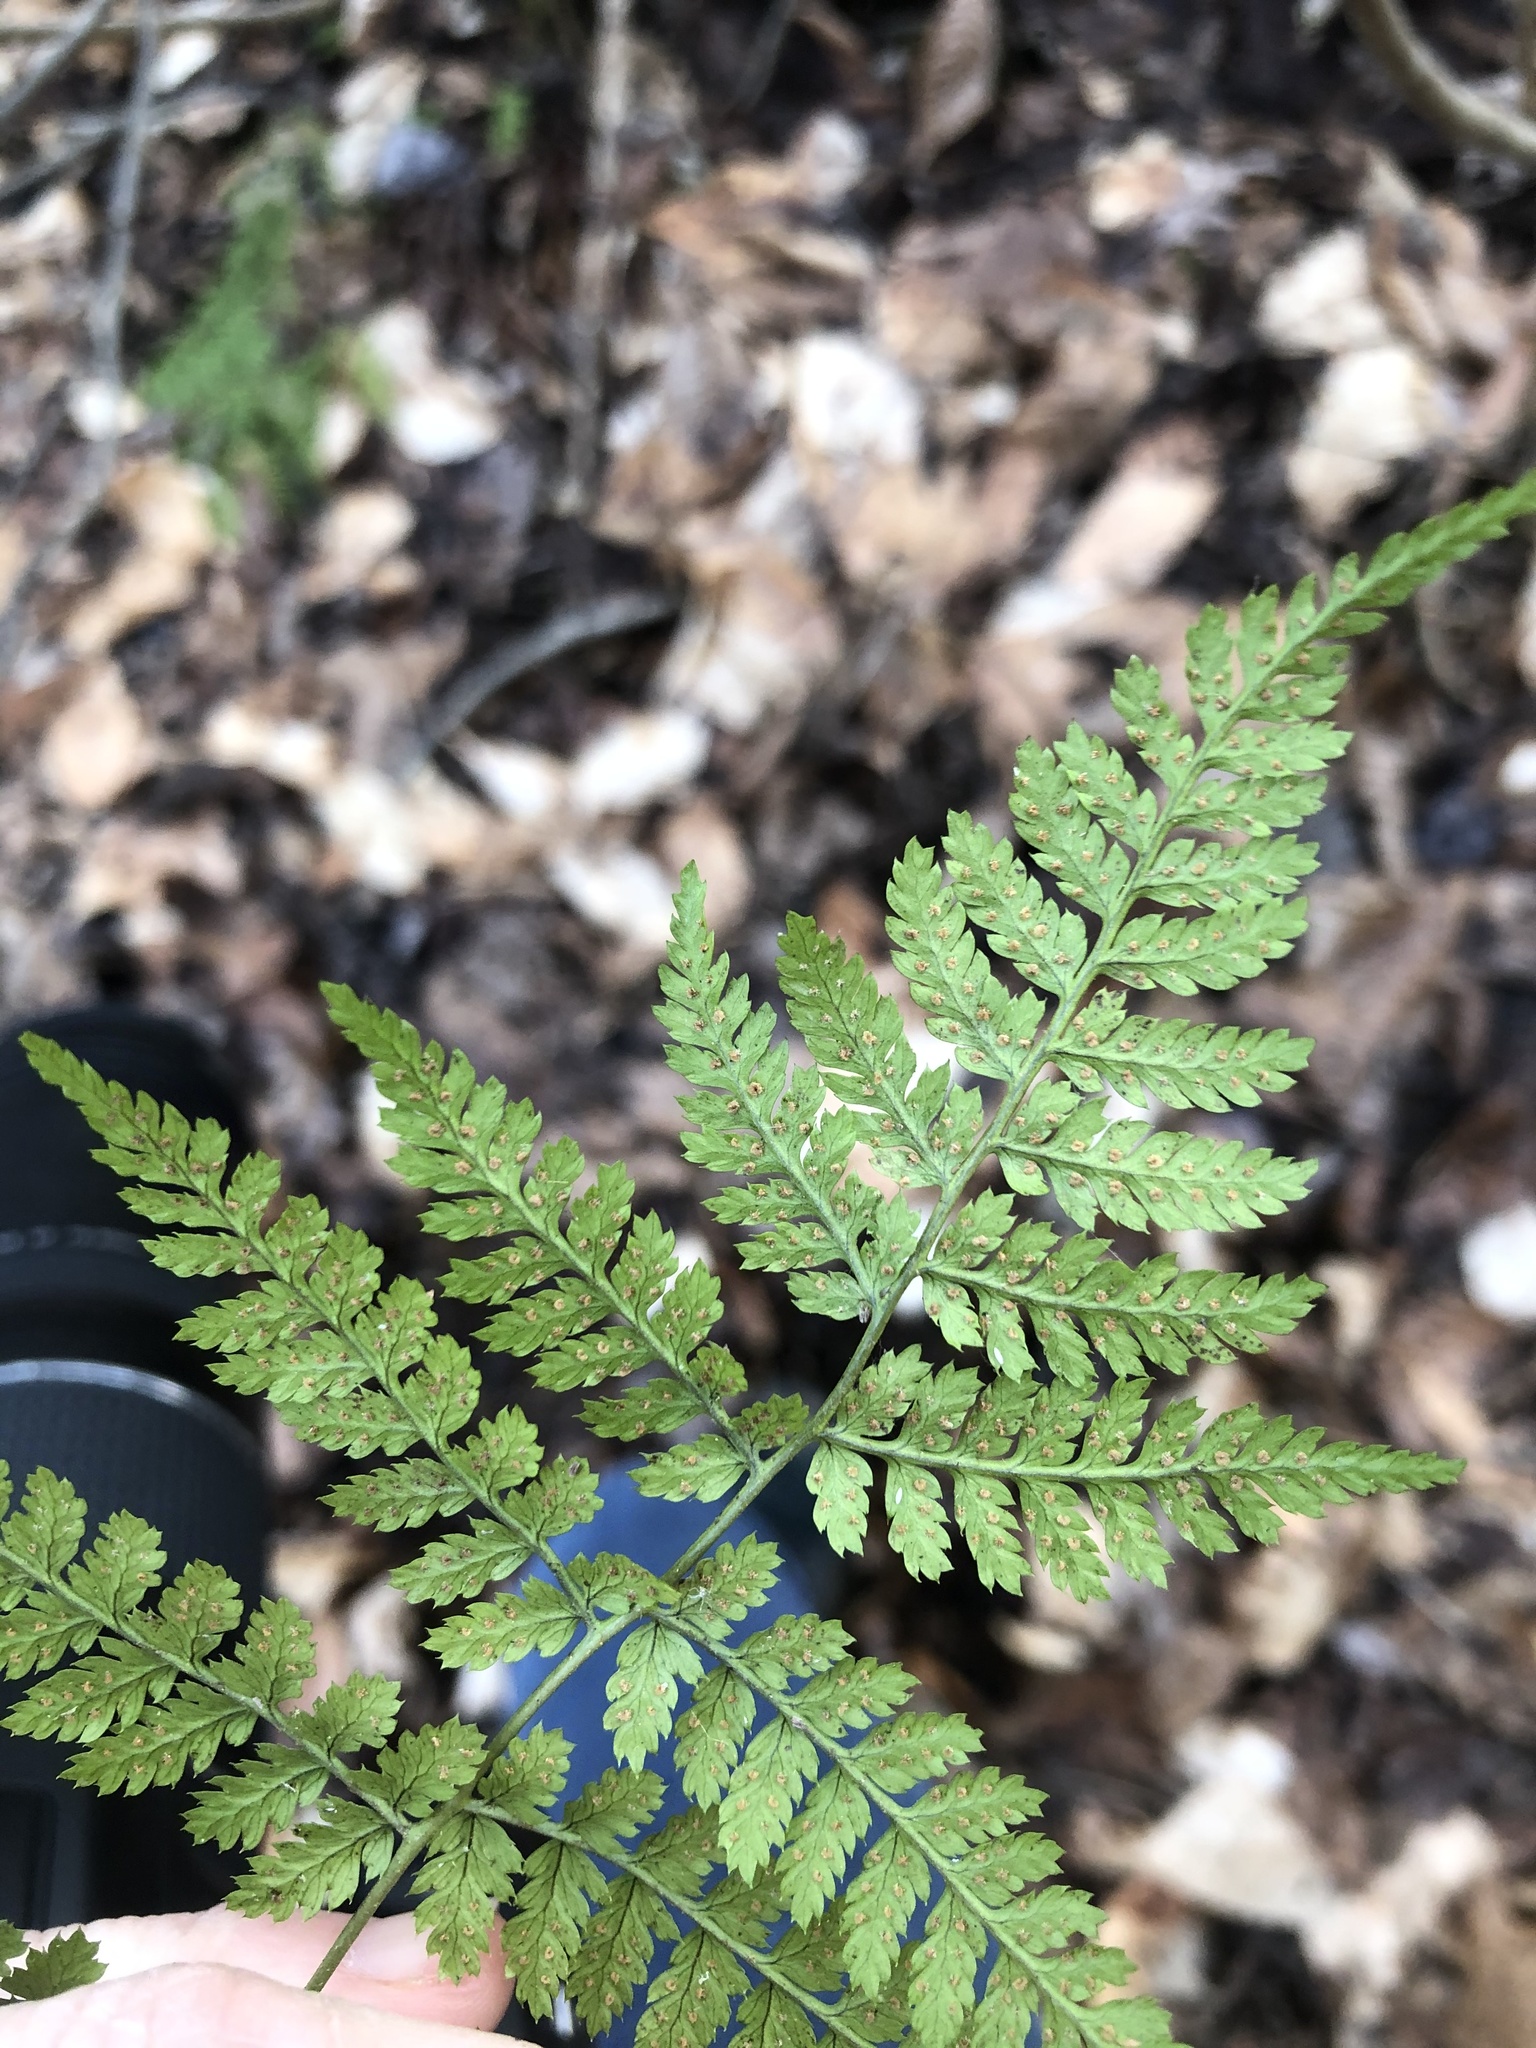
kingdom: Plantae
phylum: Tracheophyta
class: Polypodiopsida
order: Polypodiales
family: Dryopteridaceae
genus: Dryopteris
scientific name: Dryopteris intermedia
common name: Evergreen wood fern
